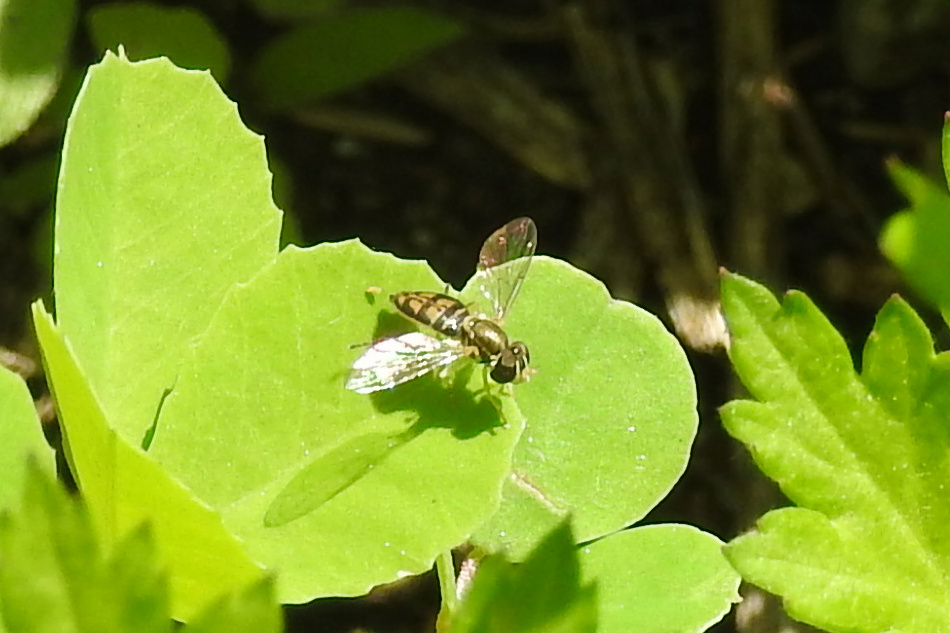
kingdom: Animalia
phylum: Arthropoda
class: Insecta
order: Diptera
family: Syrphidae
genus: Toxomerus
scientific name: Toxomerus marginatus
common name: Syrphid fly
